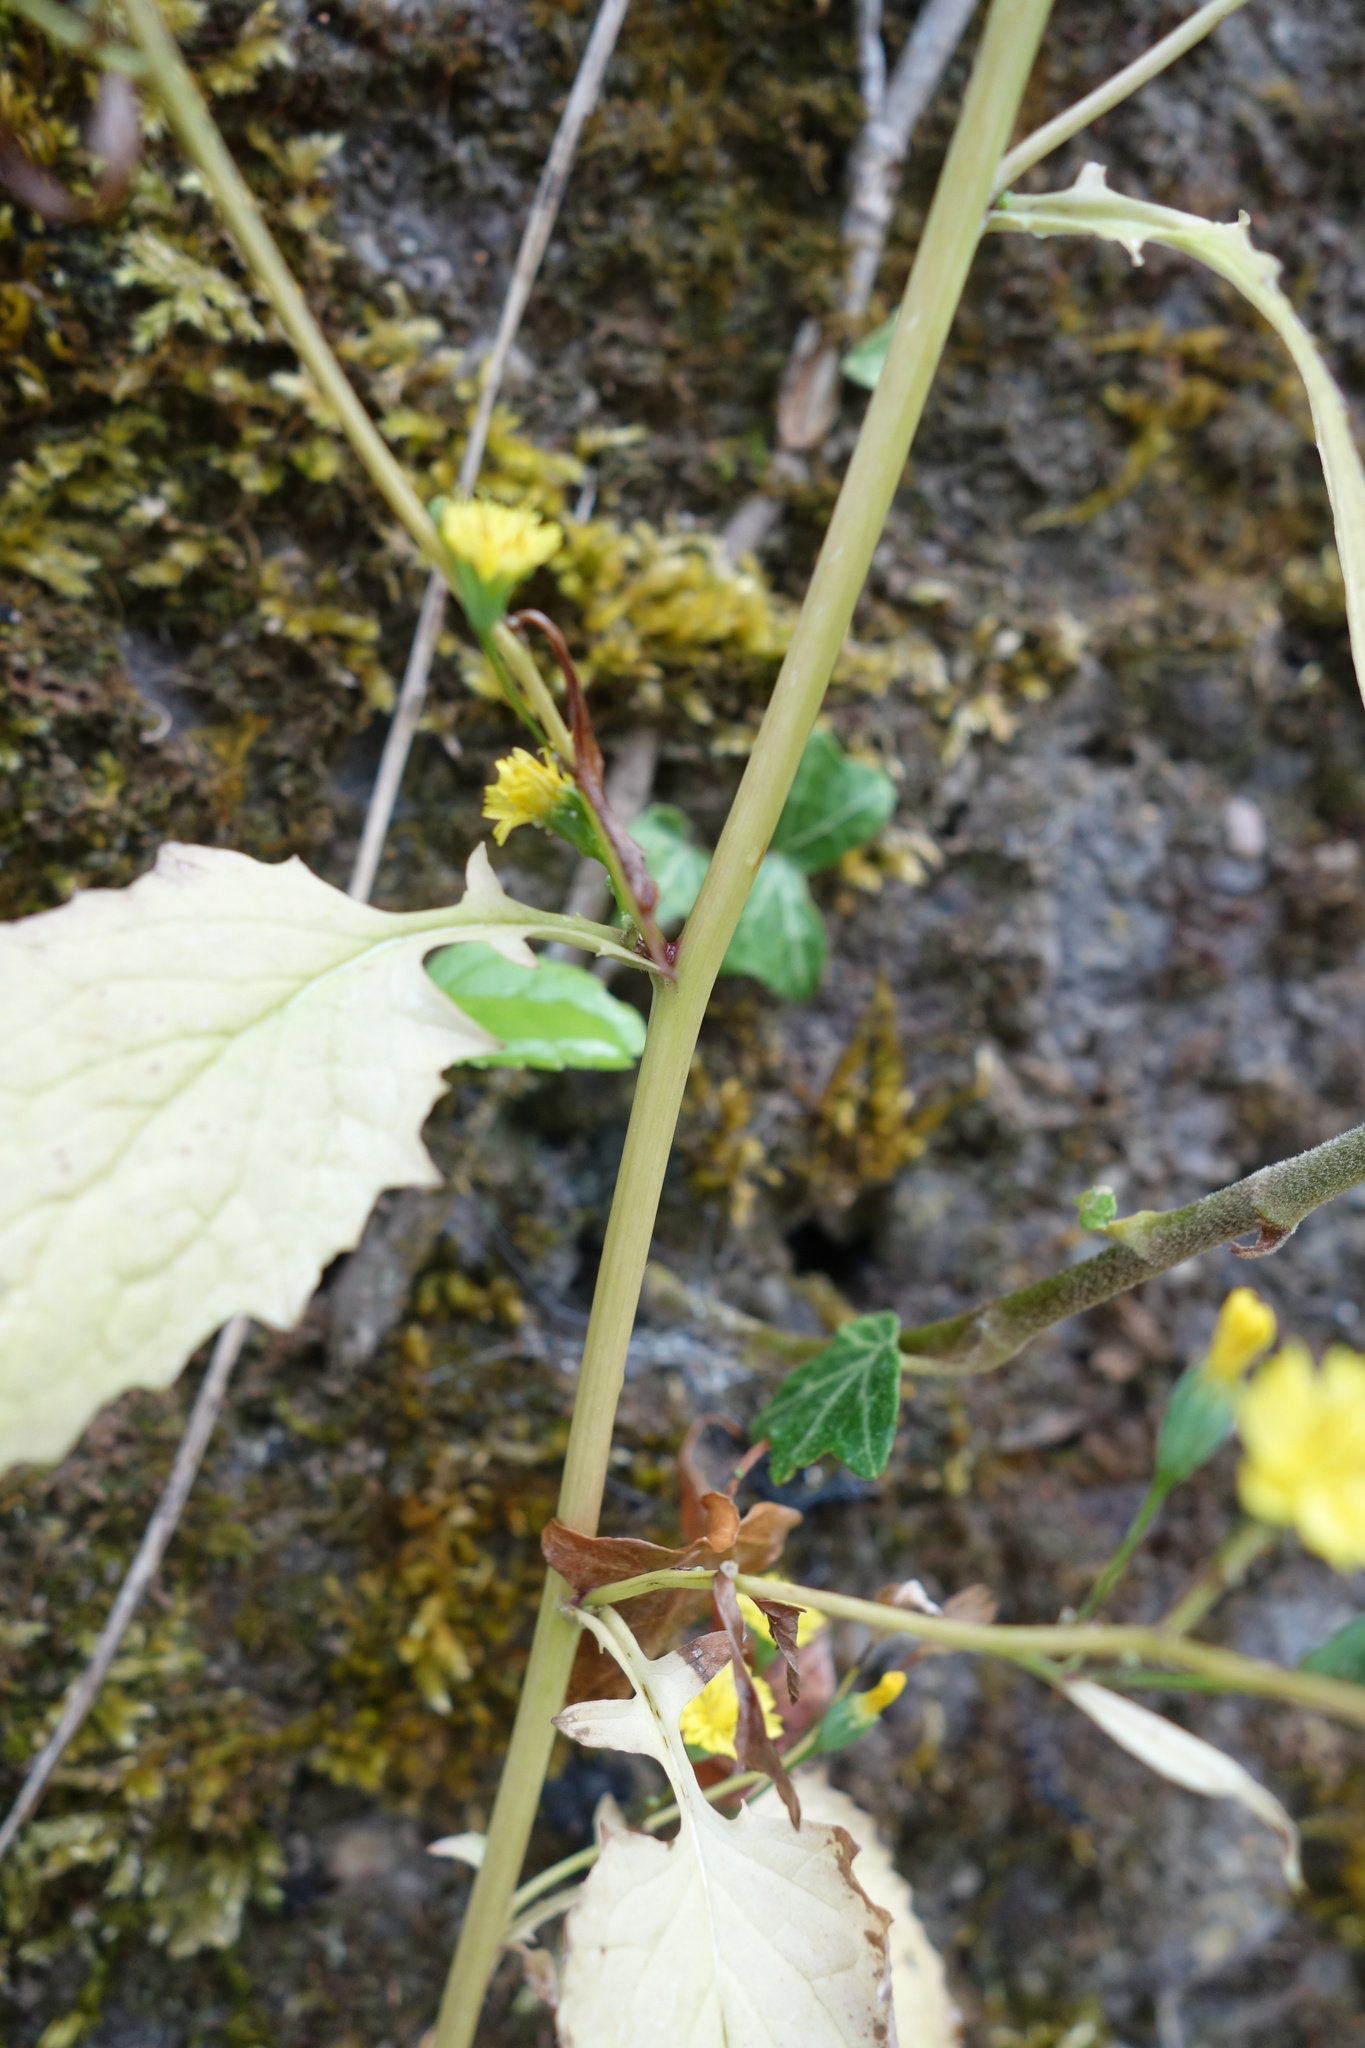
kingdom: Plantae
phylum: Tracheophyta
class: Magnoliopsida
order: Asterales
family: Asteraceae
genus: Lapsana
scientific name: Lapsana communis
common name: Nipplewort
